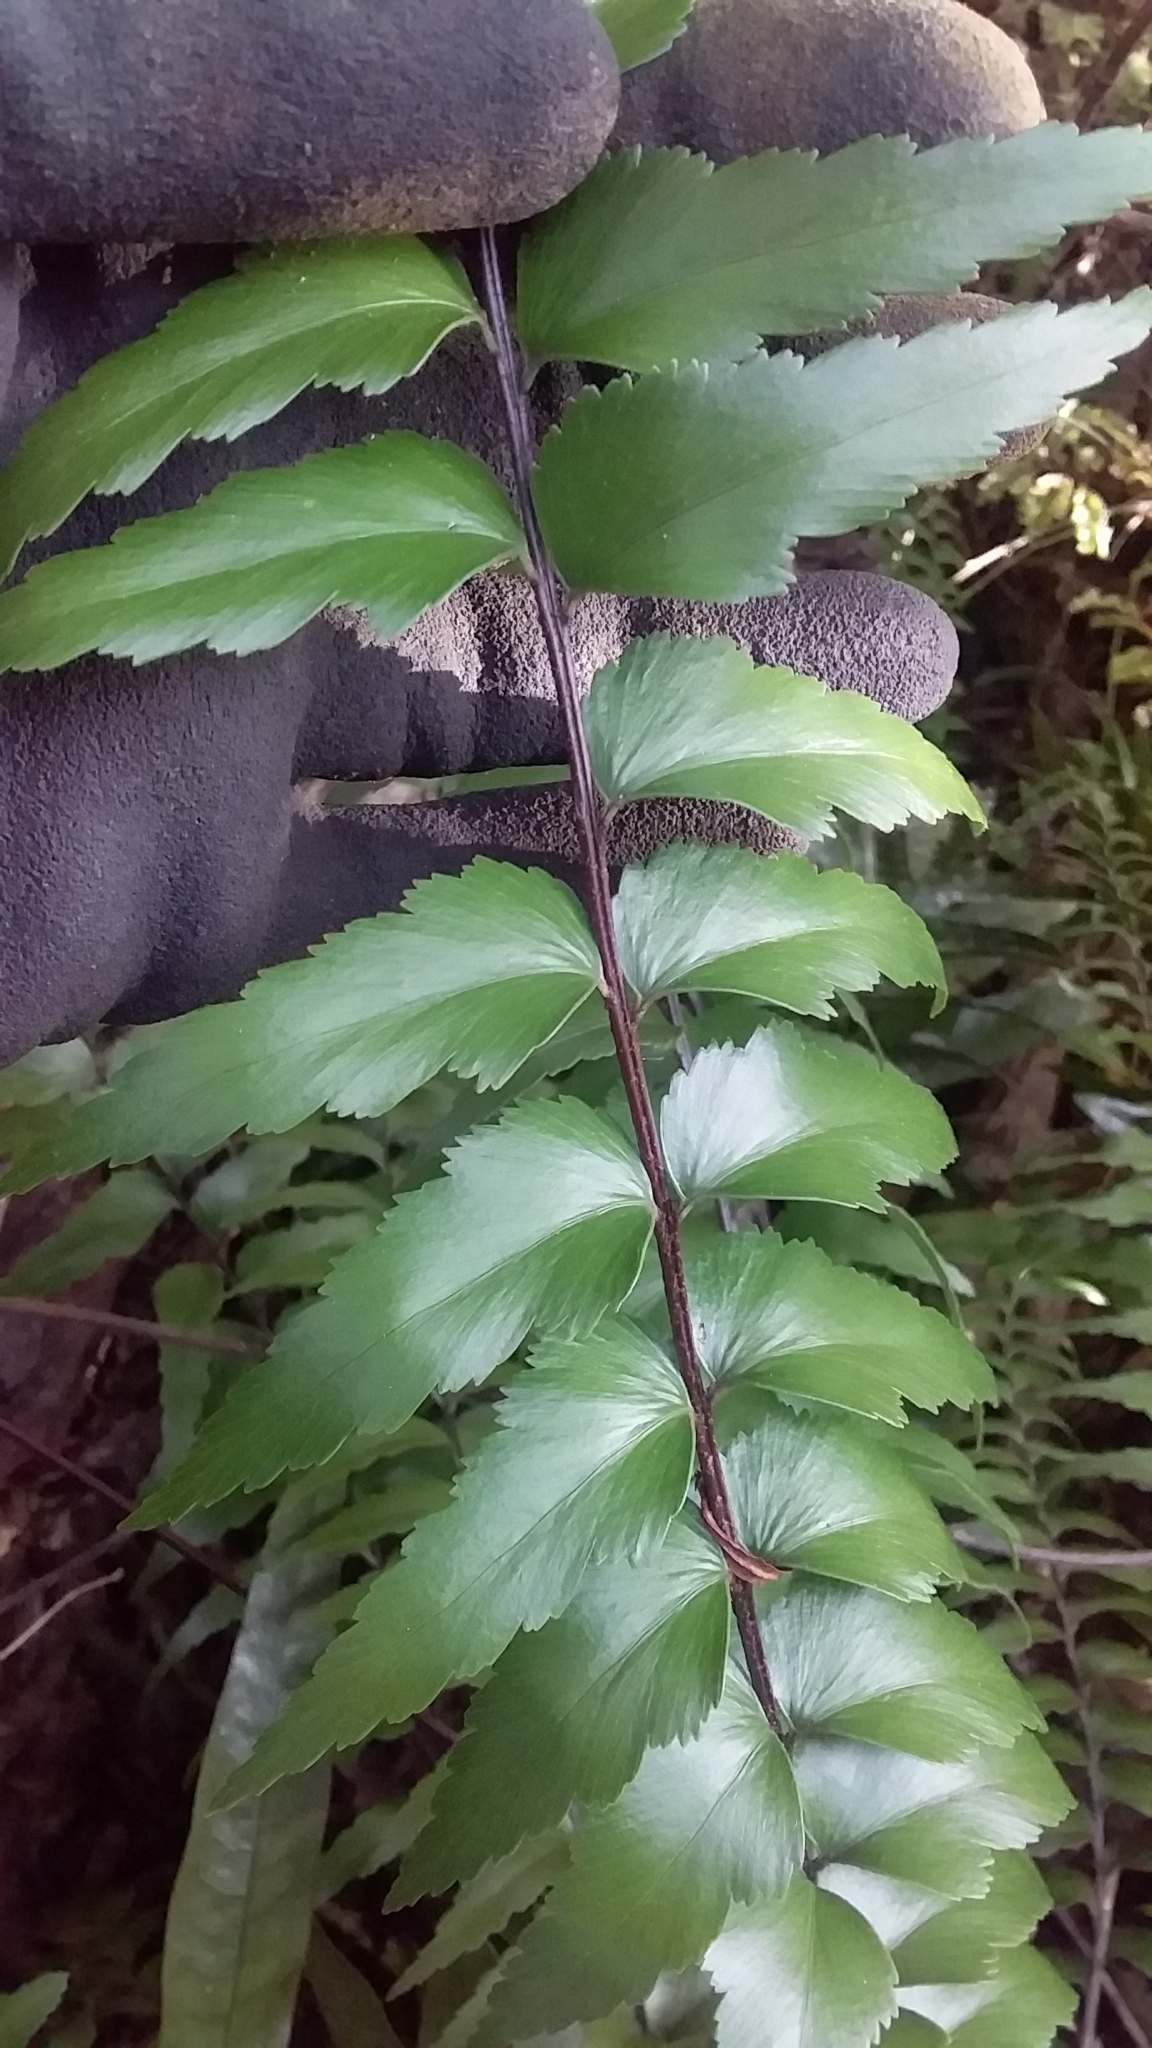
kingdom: Plantae
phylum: Tracheophyta
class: Polypodiopsida
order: Polypodiales
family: Aspleniaceae
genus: Asplenium
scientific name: Asplenium polyodon
